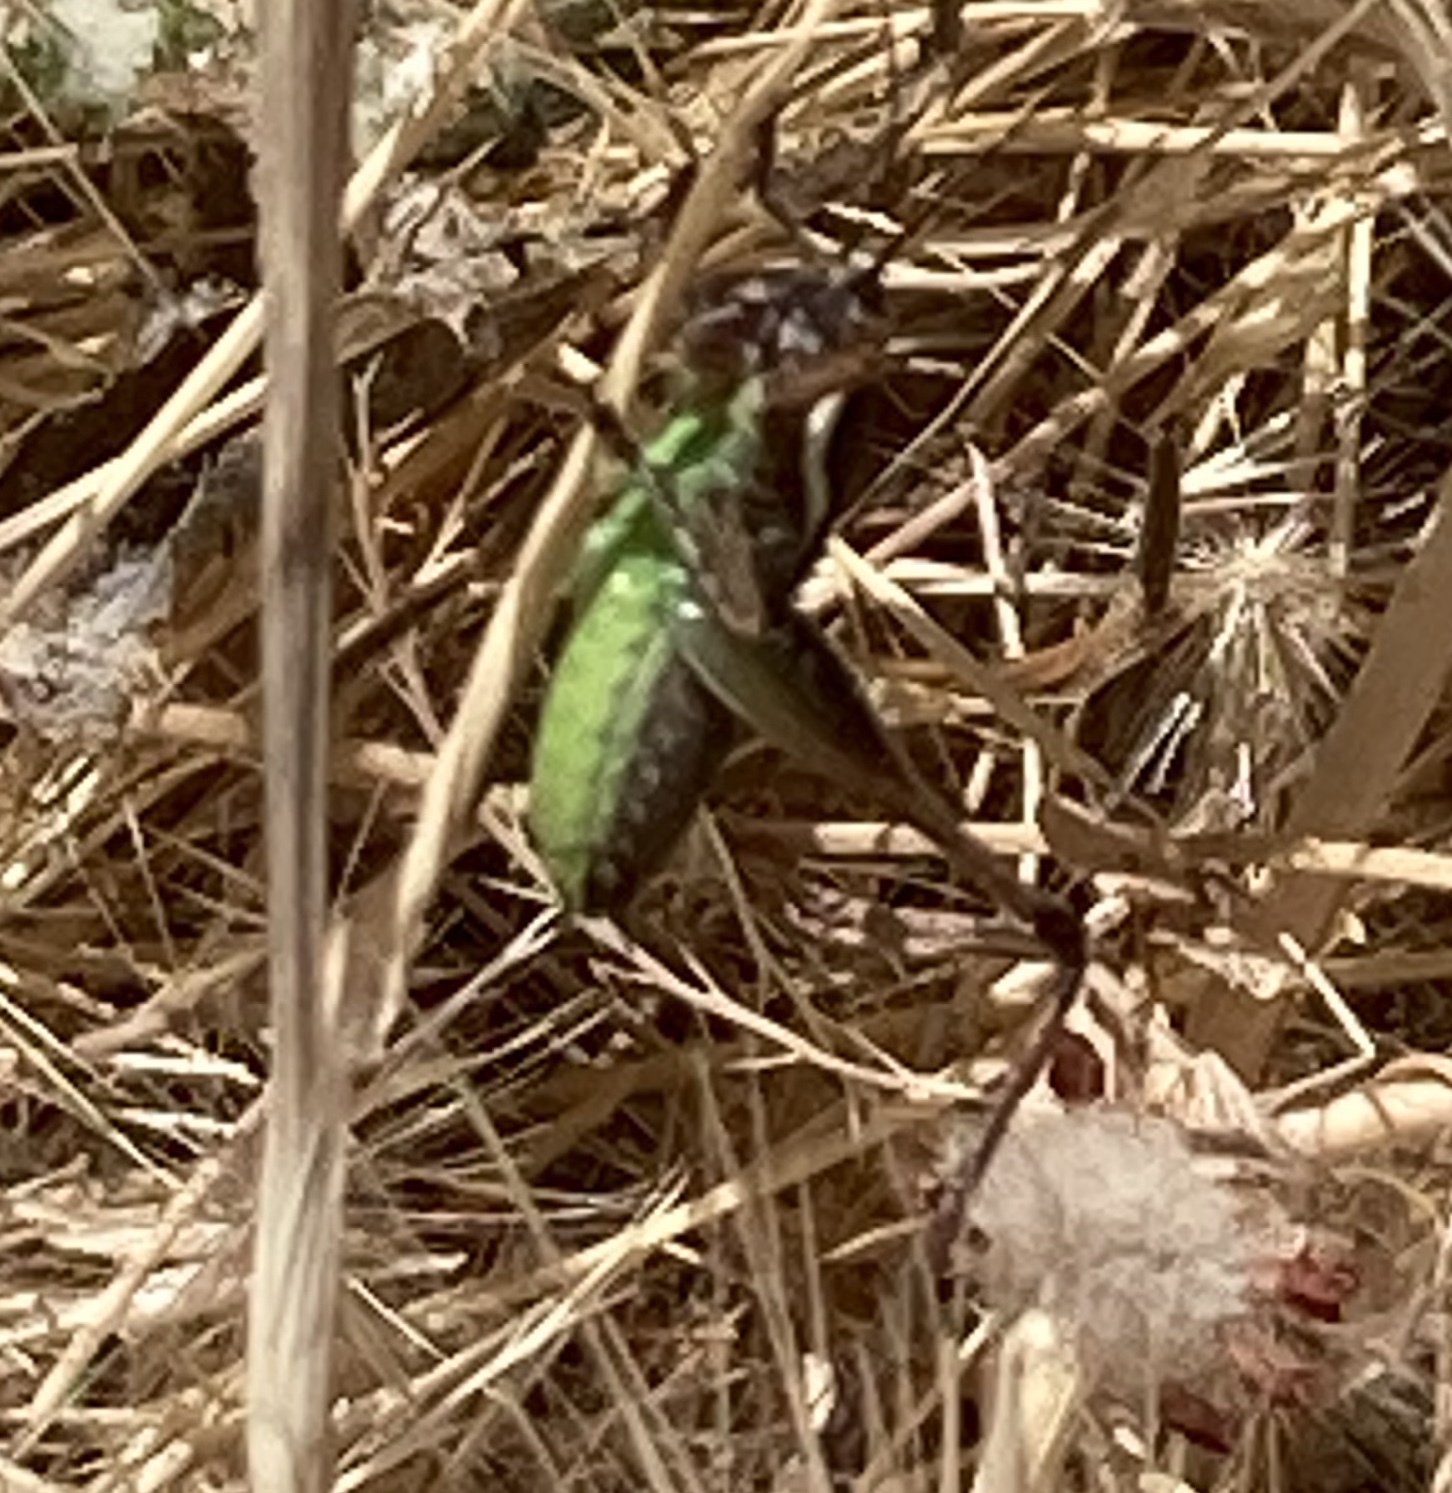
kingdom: Animalia
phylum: Arthropoda
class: Insecta
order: Orthoptera
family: Tettigoniidae
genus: Eupholidoptera
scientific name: Eupholidoptera smyrnensis
